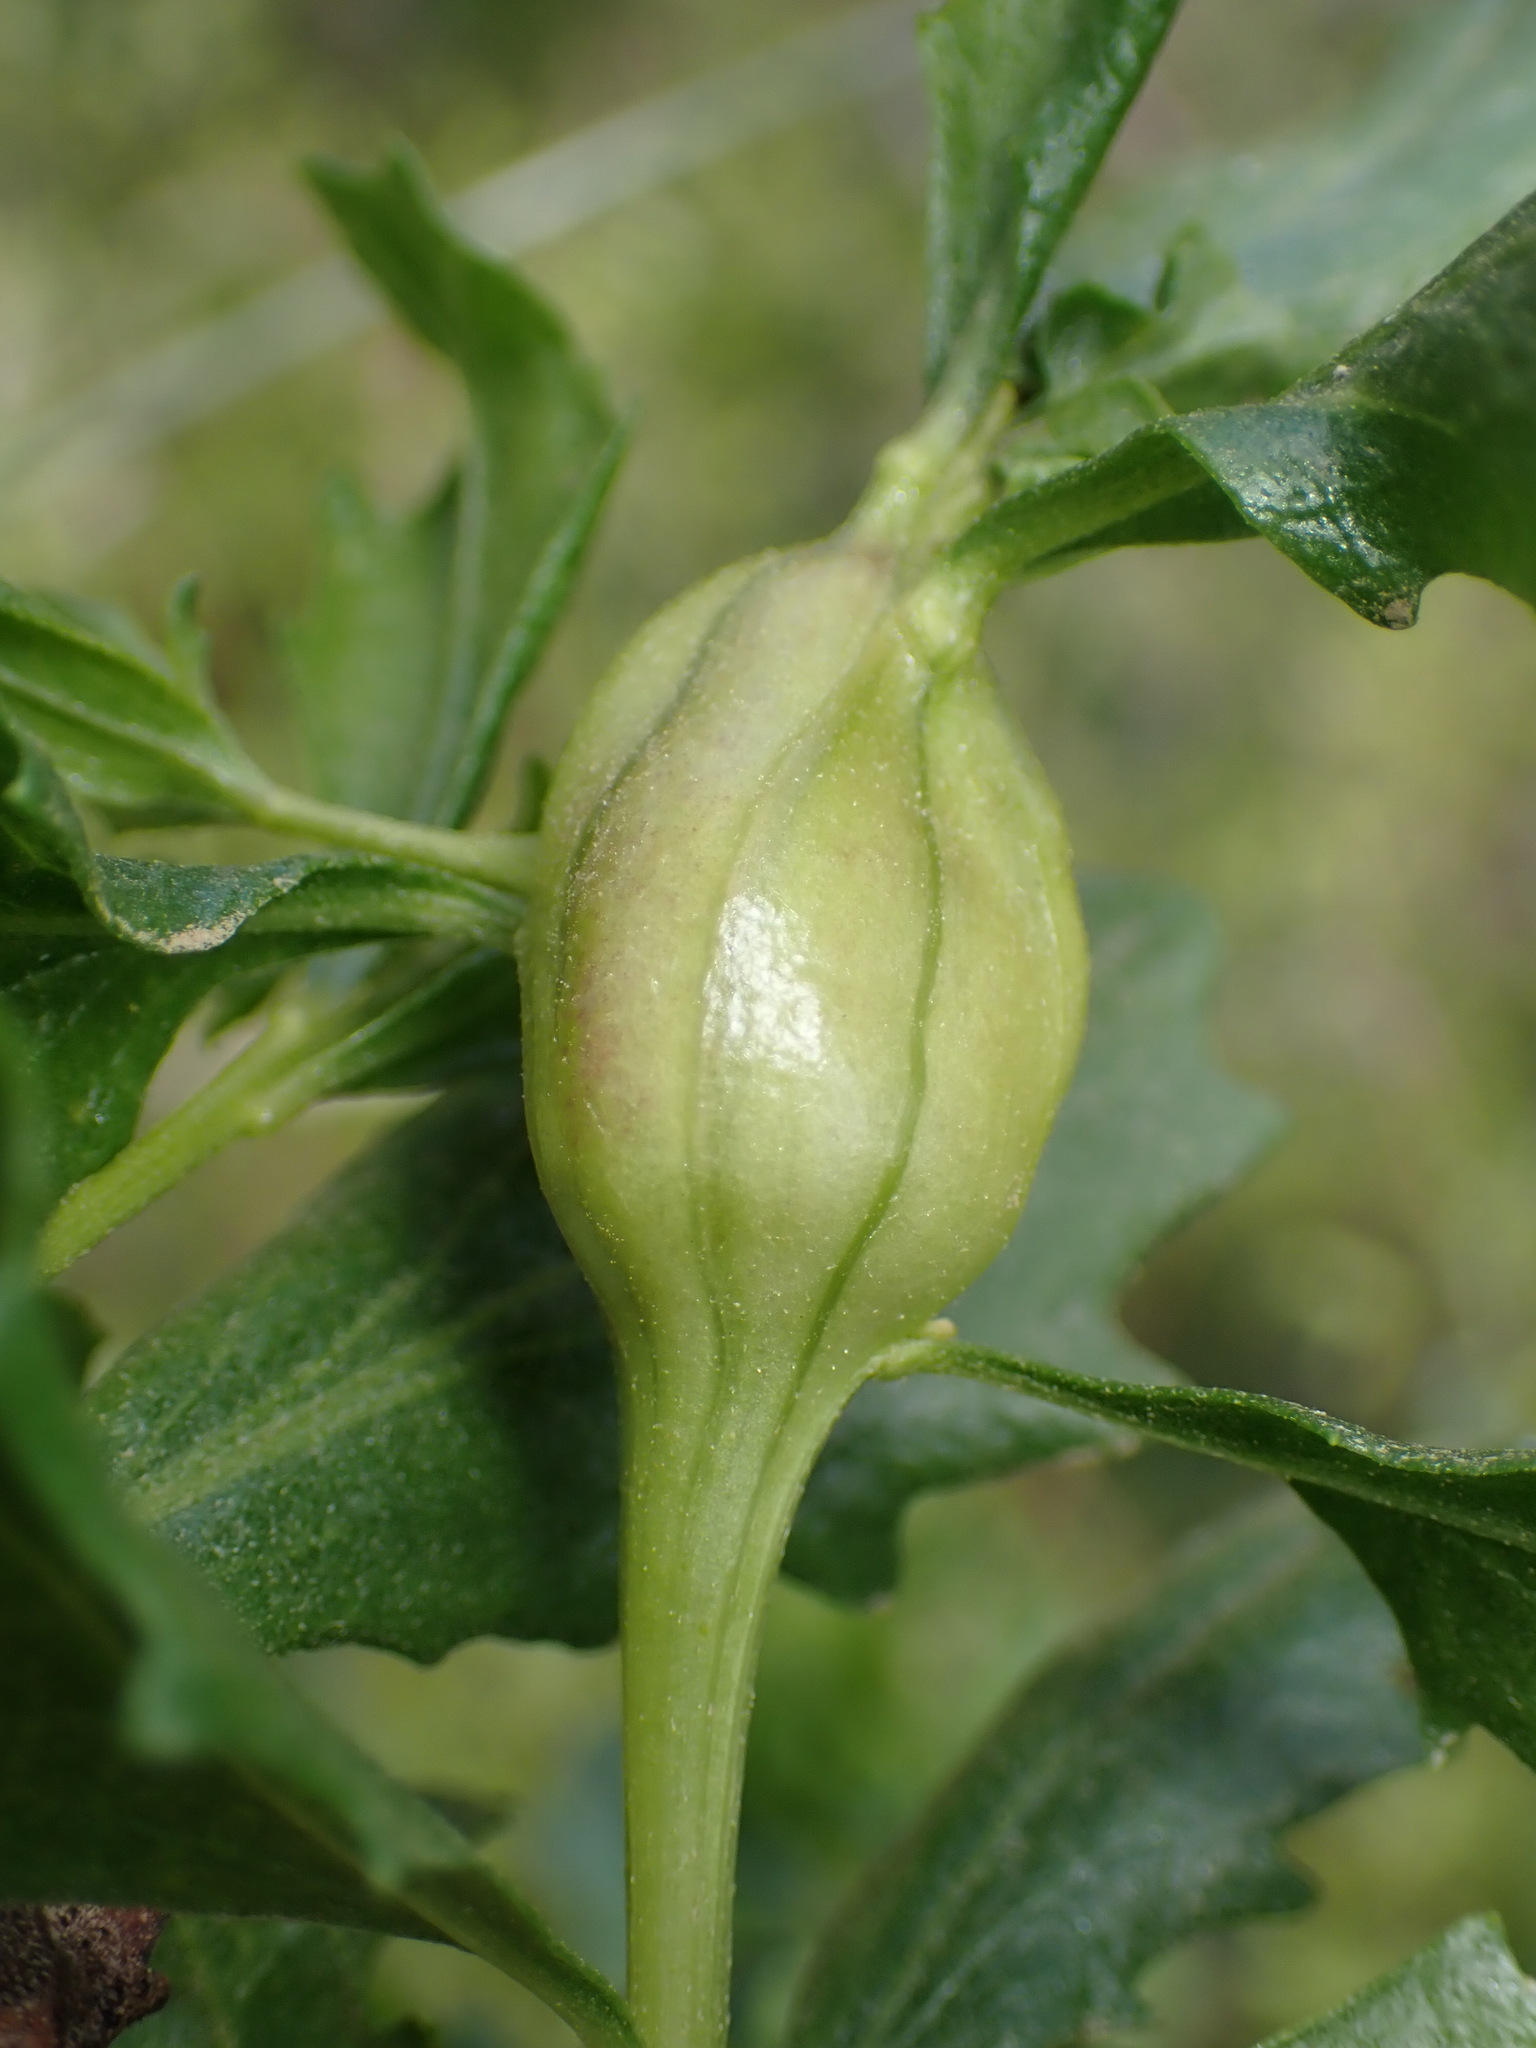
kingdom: Animalia
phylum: Arthropoda
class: Insecta
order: Lepidoptera
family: Gelechiidae
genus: Gnorimoschema
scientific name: Gnorimoschema baccharisella
